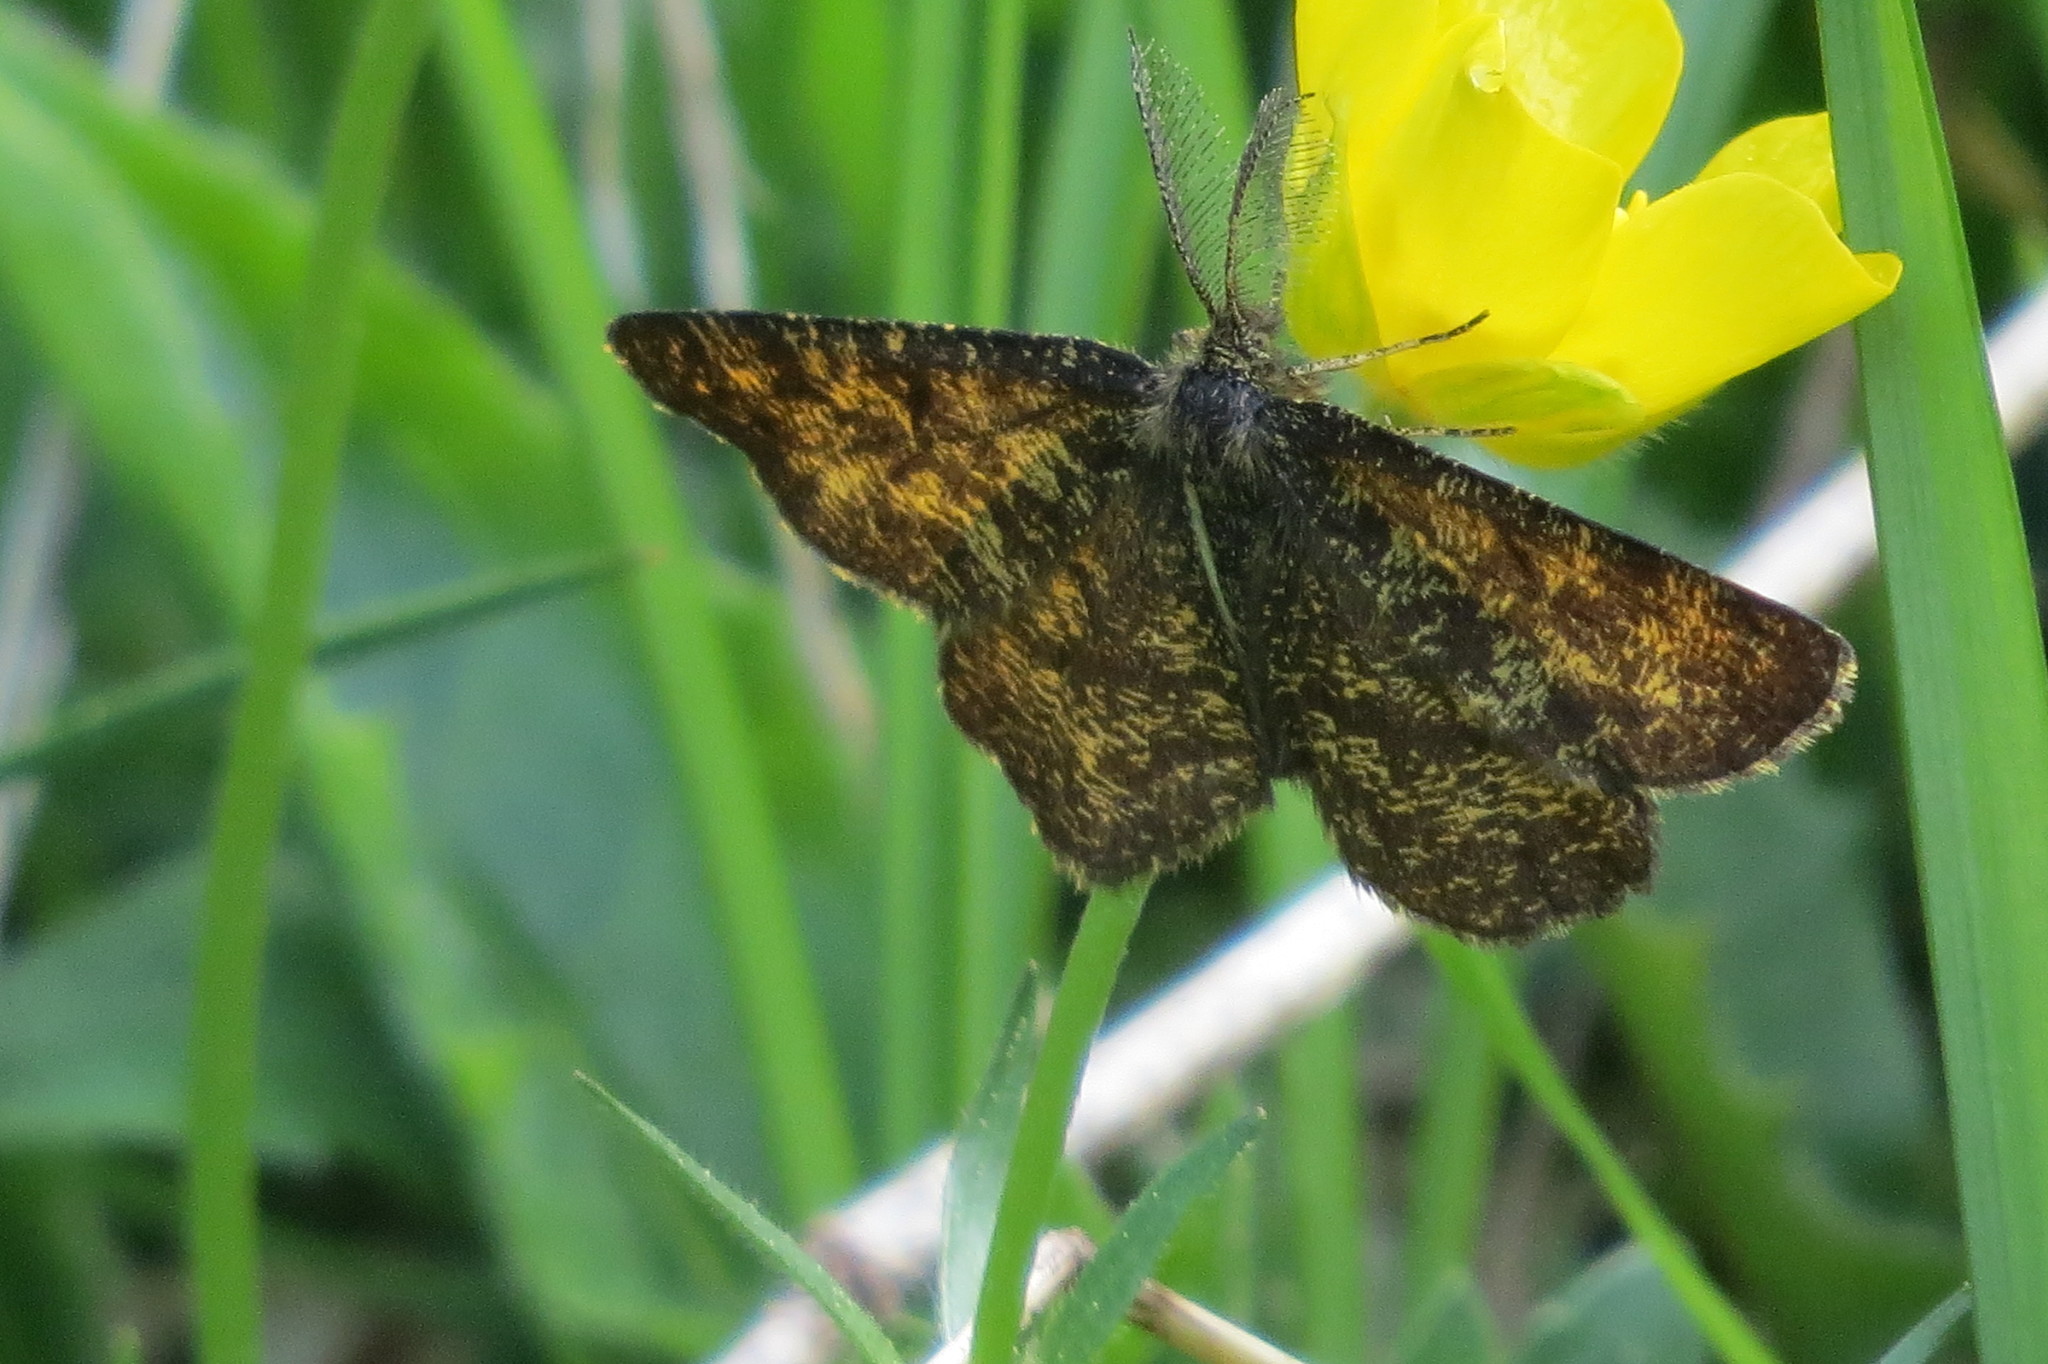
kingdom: Animalia
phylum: Arthropoda
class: Insecta
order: Lepidoptera
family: Geometridae
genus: Ematurga
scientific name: Ematurga atomaria
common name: Common heath
